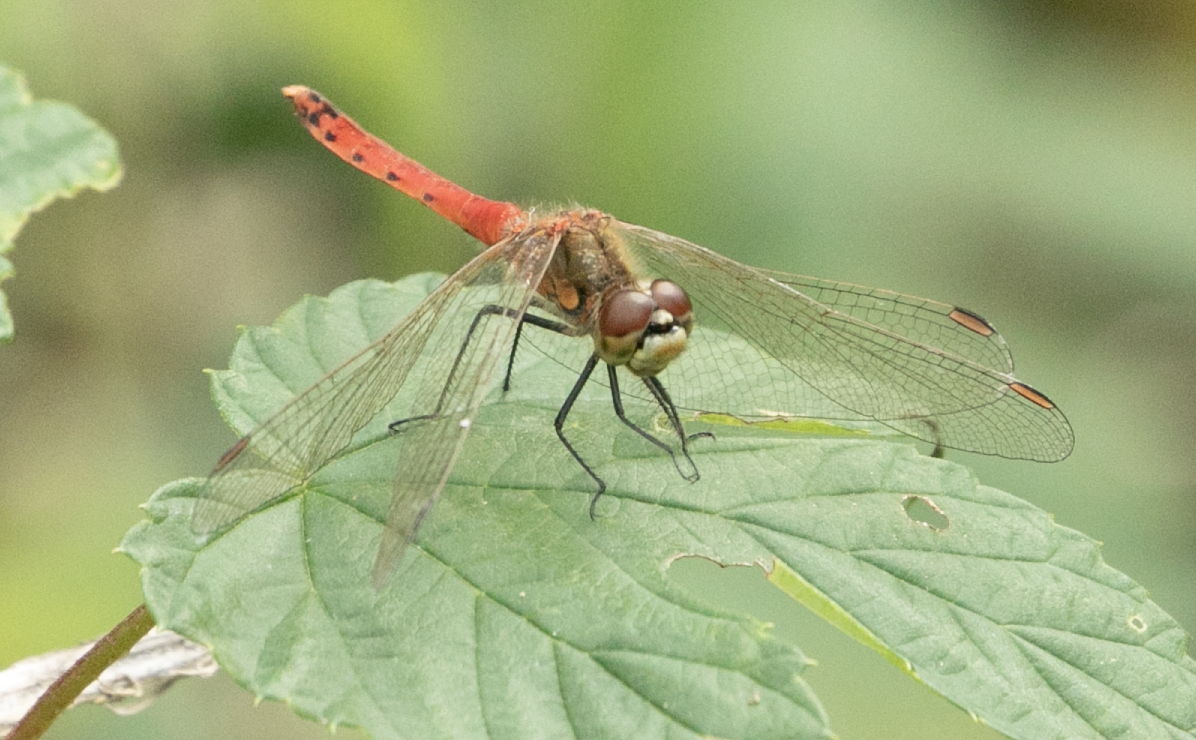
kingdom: Animalia
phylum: Arthropoda
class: Insecta
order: Odonata
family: Libellulidae
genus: Sympetrum
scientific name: Sympetrum depressiusculum
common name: Spotted darter
